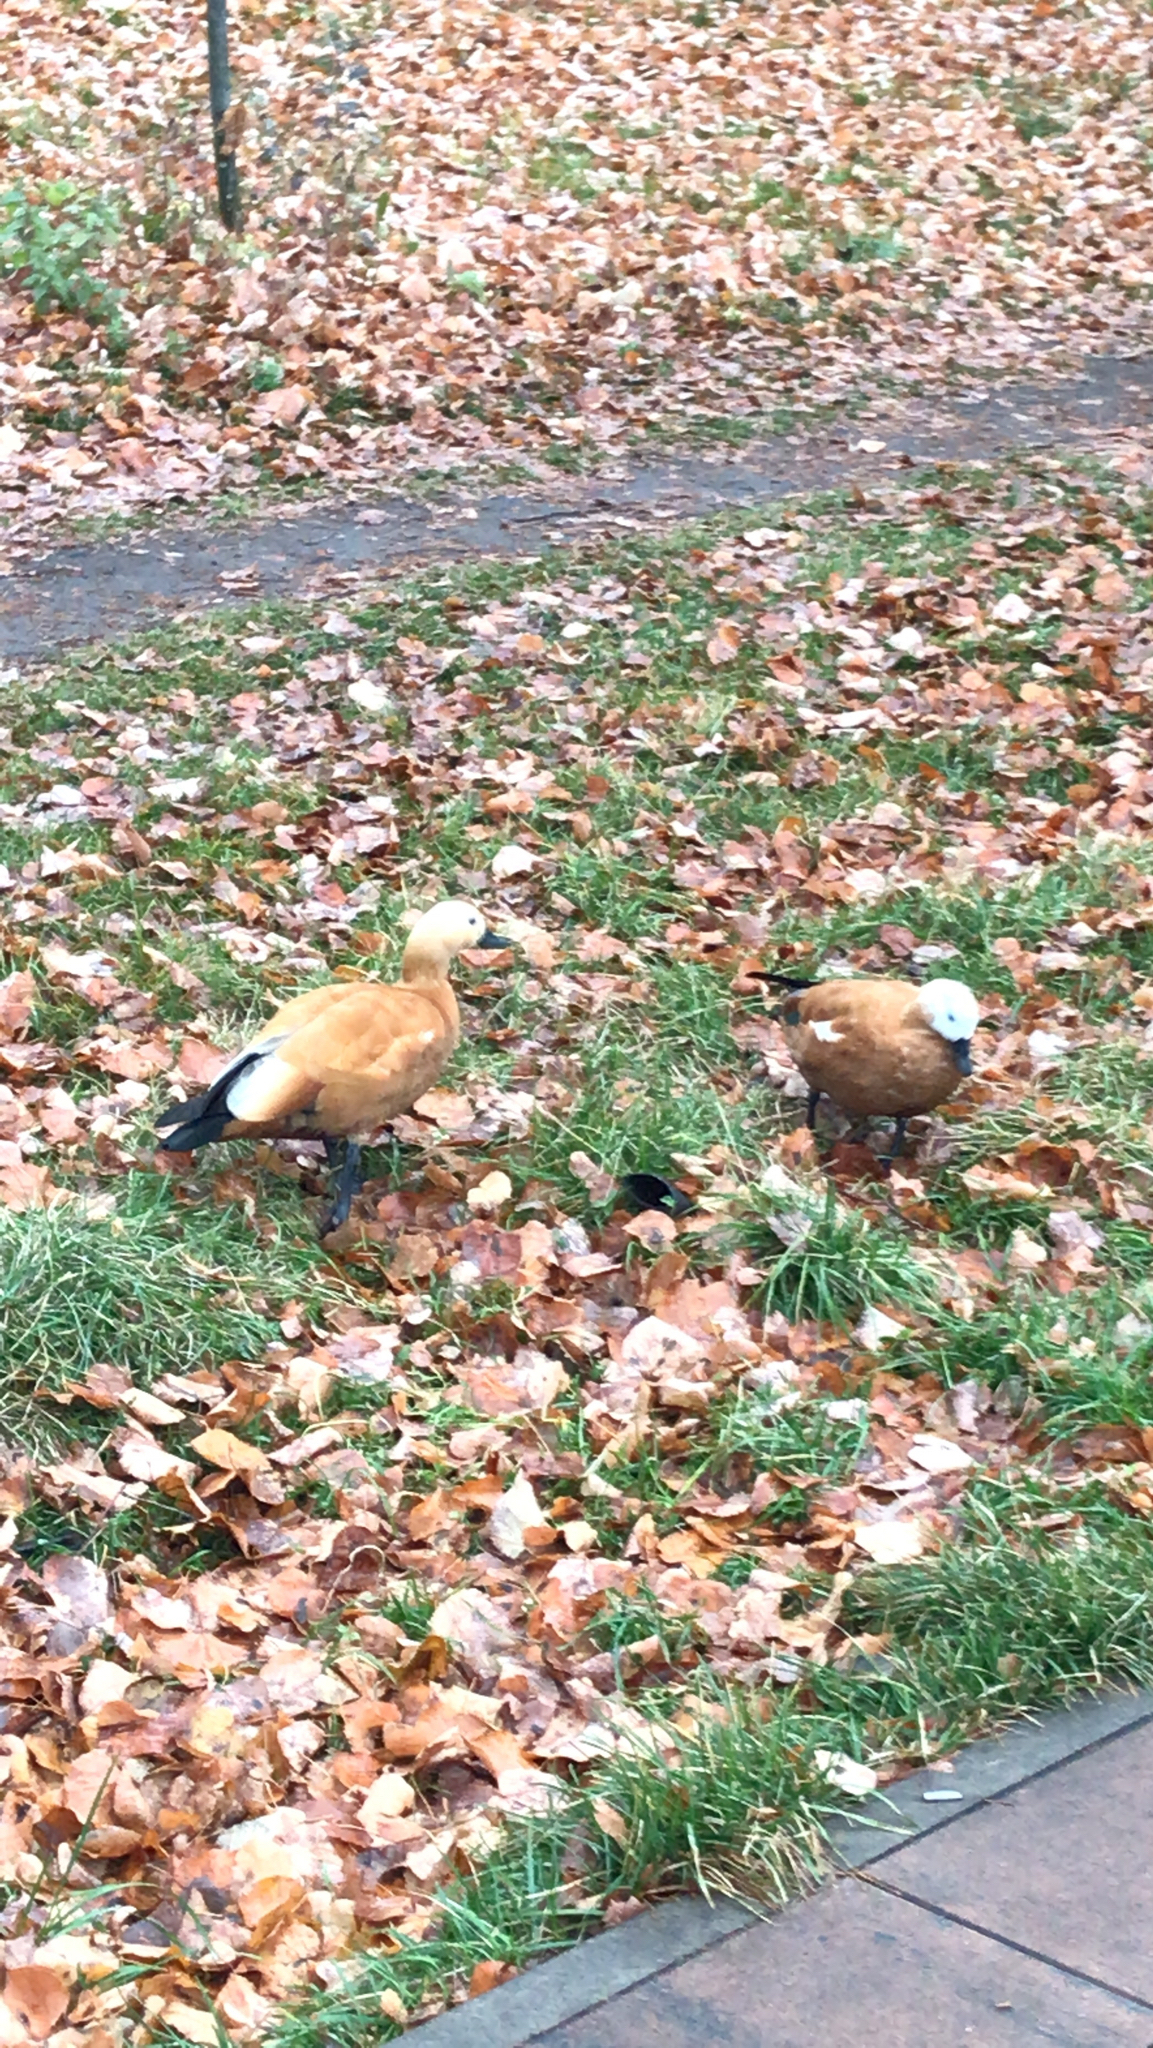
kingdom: Animalia
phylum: Chordata
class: Aves
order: Anseriformes
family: Anatidae
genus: Tadorna
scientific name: Tadorna ferruginea
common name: Ruddy shelduck
